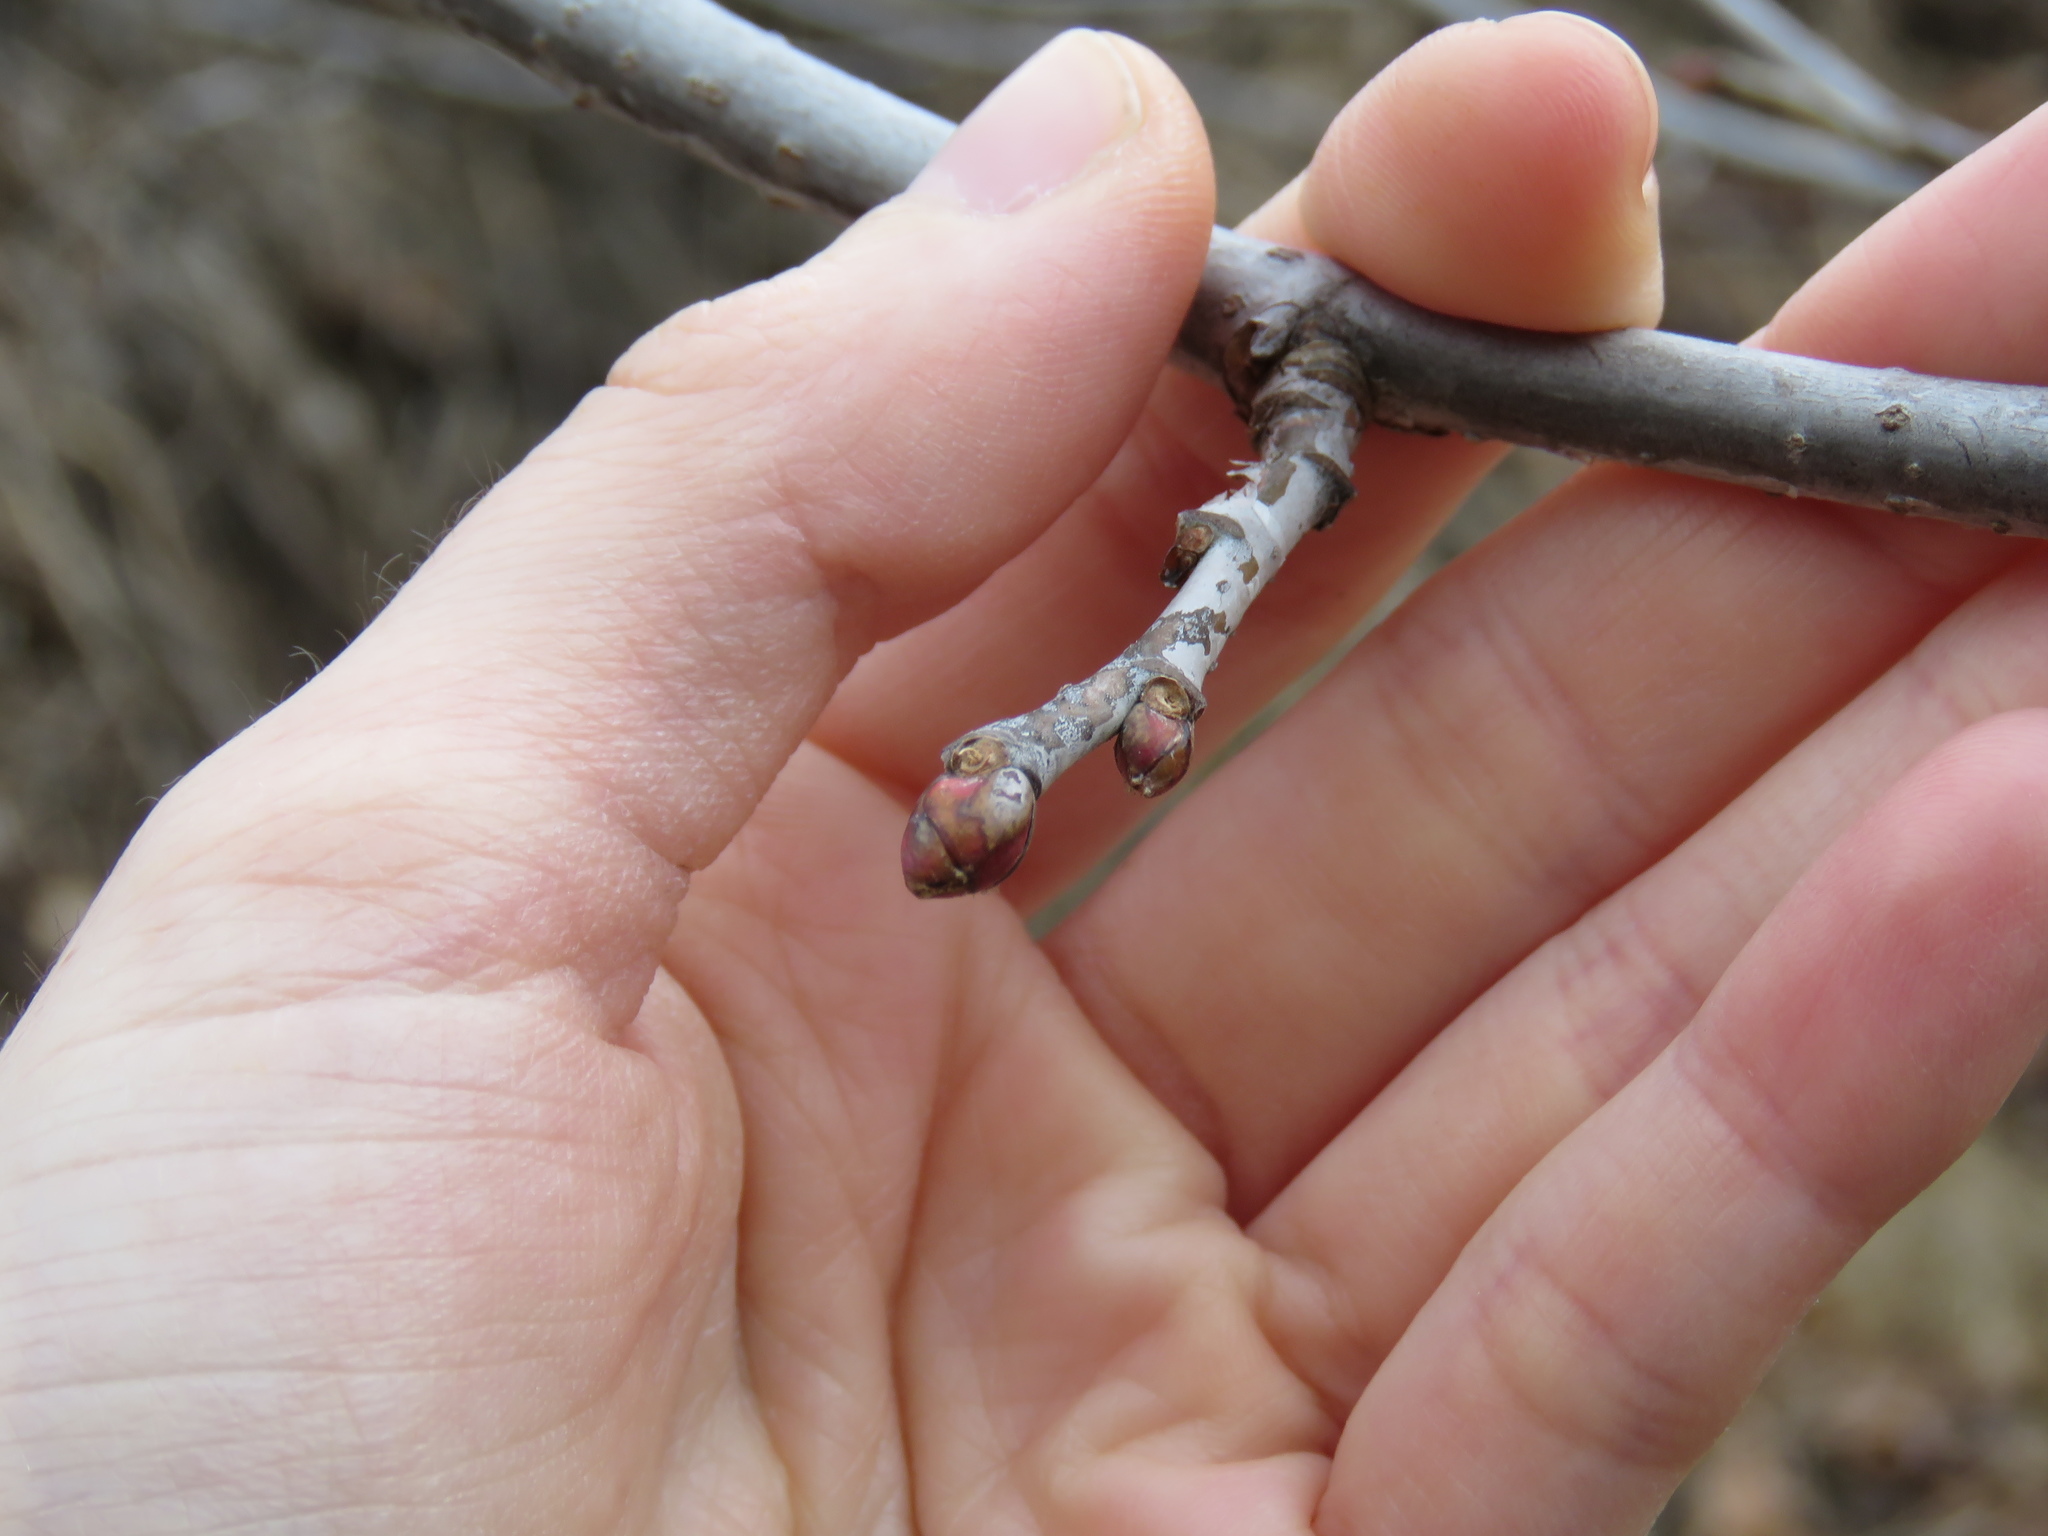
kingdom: Plantae
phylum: Tracheophyta
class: Magnoliopsida
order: Malvales
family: Malvaceae
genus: Tilia
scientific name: Tilia americana
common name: Basswood
